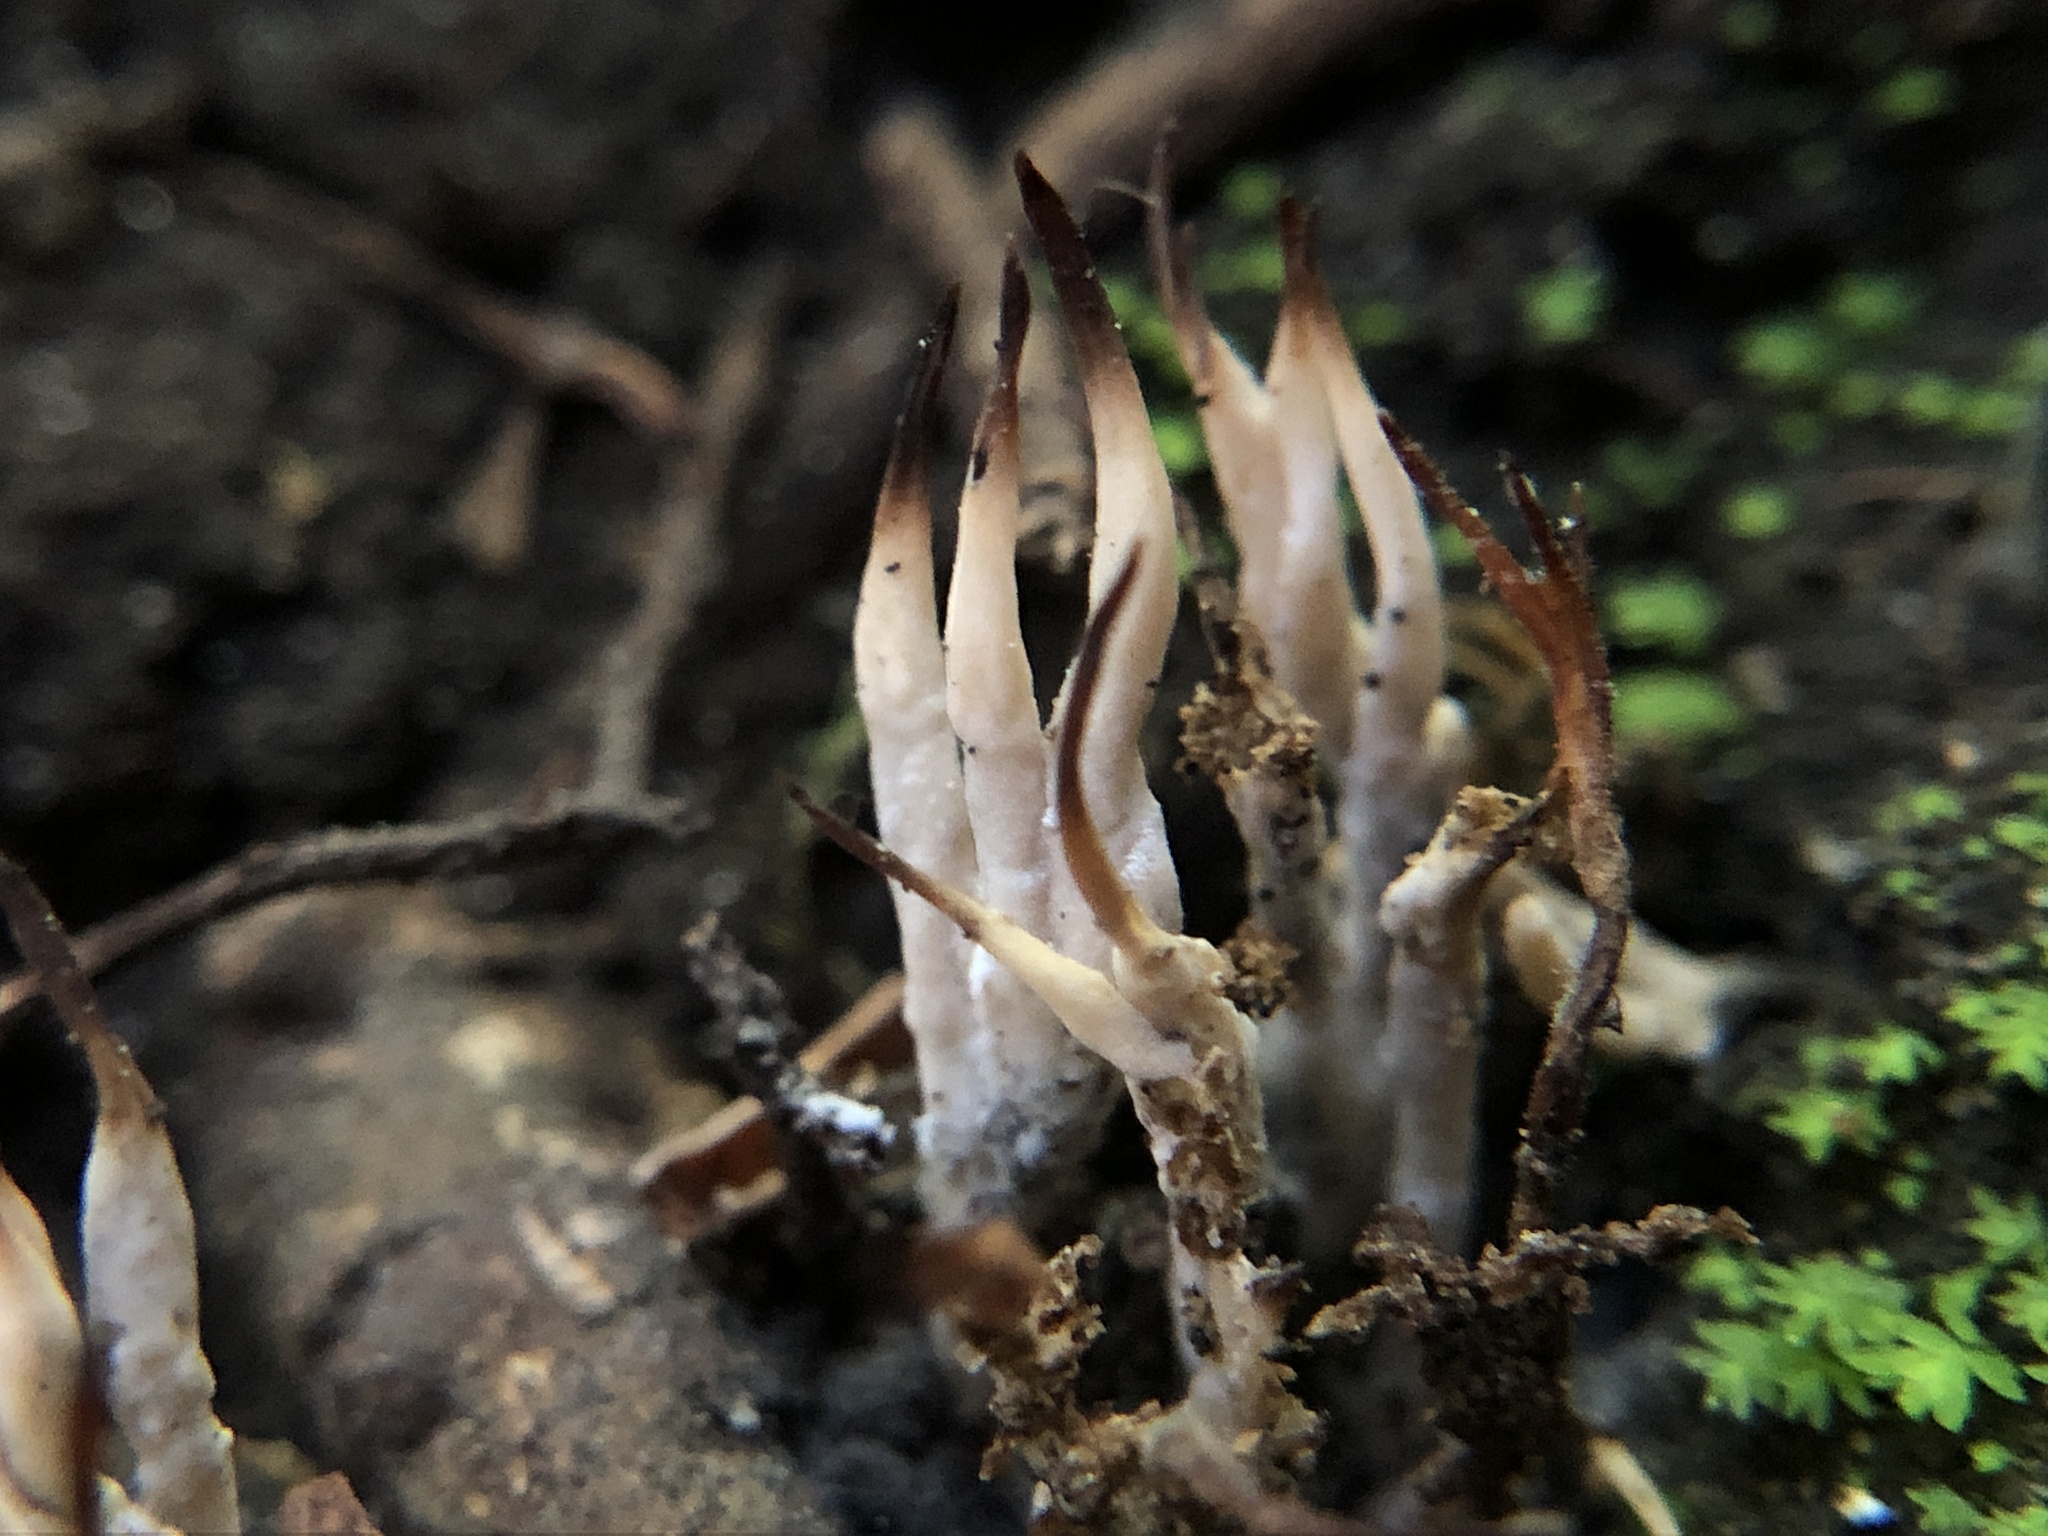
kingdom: Fungi
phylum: Basidiomycota
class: Agaricomycetes
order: Tremellodendropsidales
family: Tremellodendropsidaceae
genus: Tremellodendropsis
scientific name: Tremellodendropsis tuberosa
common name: Ashen coral
